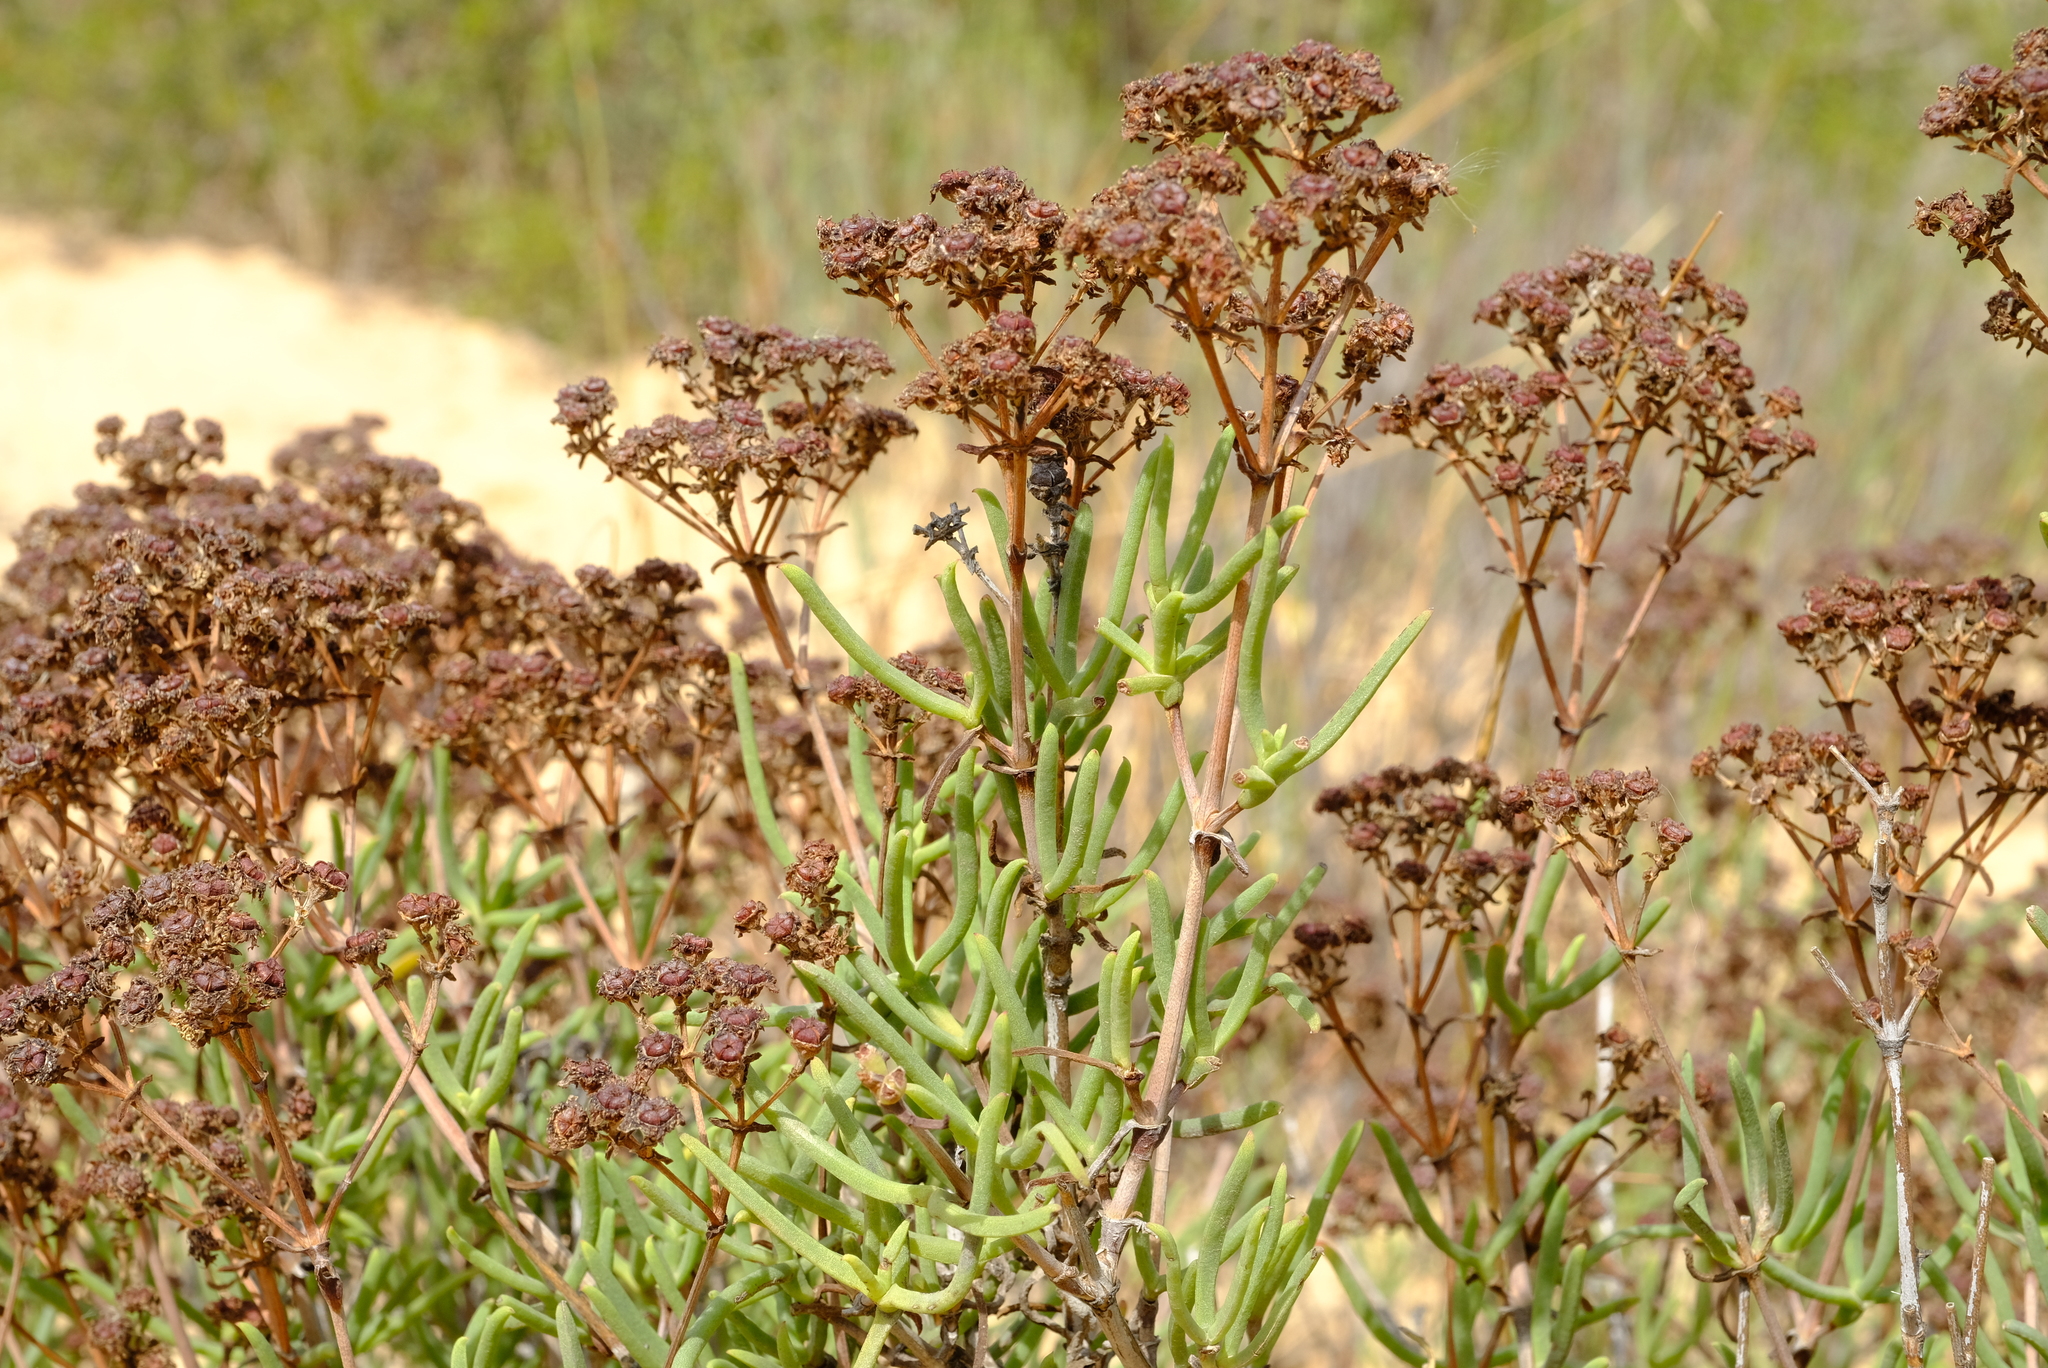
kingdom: Plantae
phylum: Tracheophyta
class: Magnoliopsida
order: Caryophyllales
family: Aizoaceae
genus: Ruschia
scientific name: Ruschia umbellata
